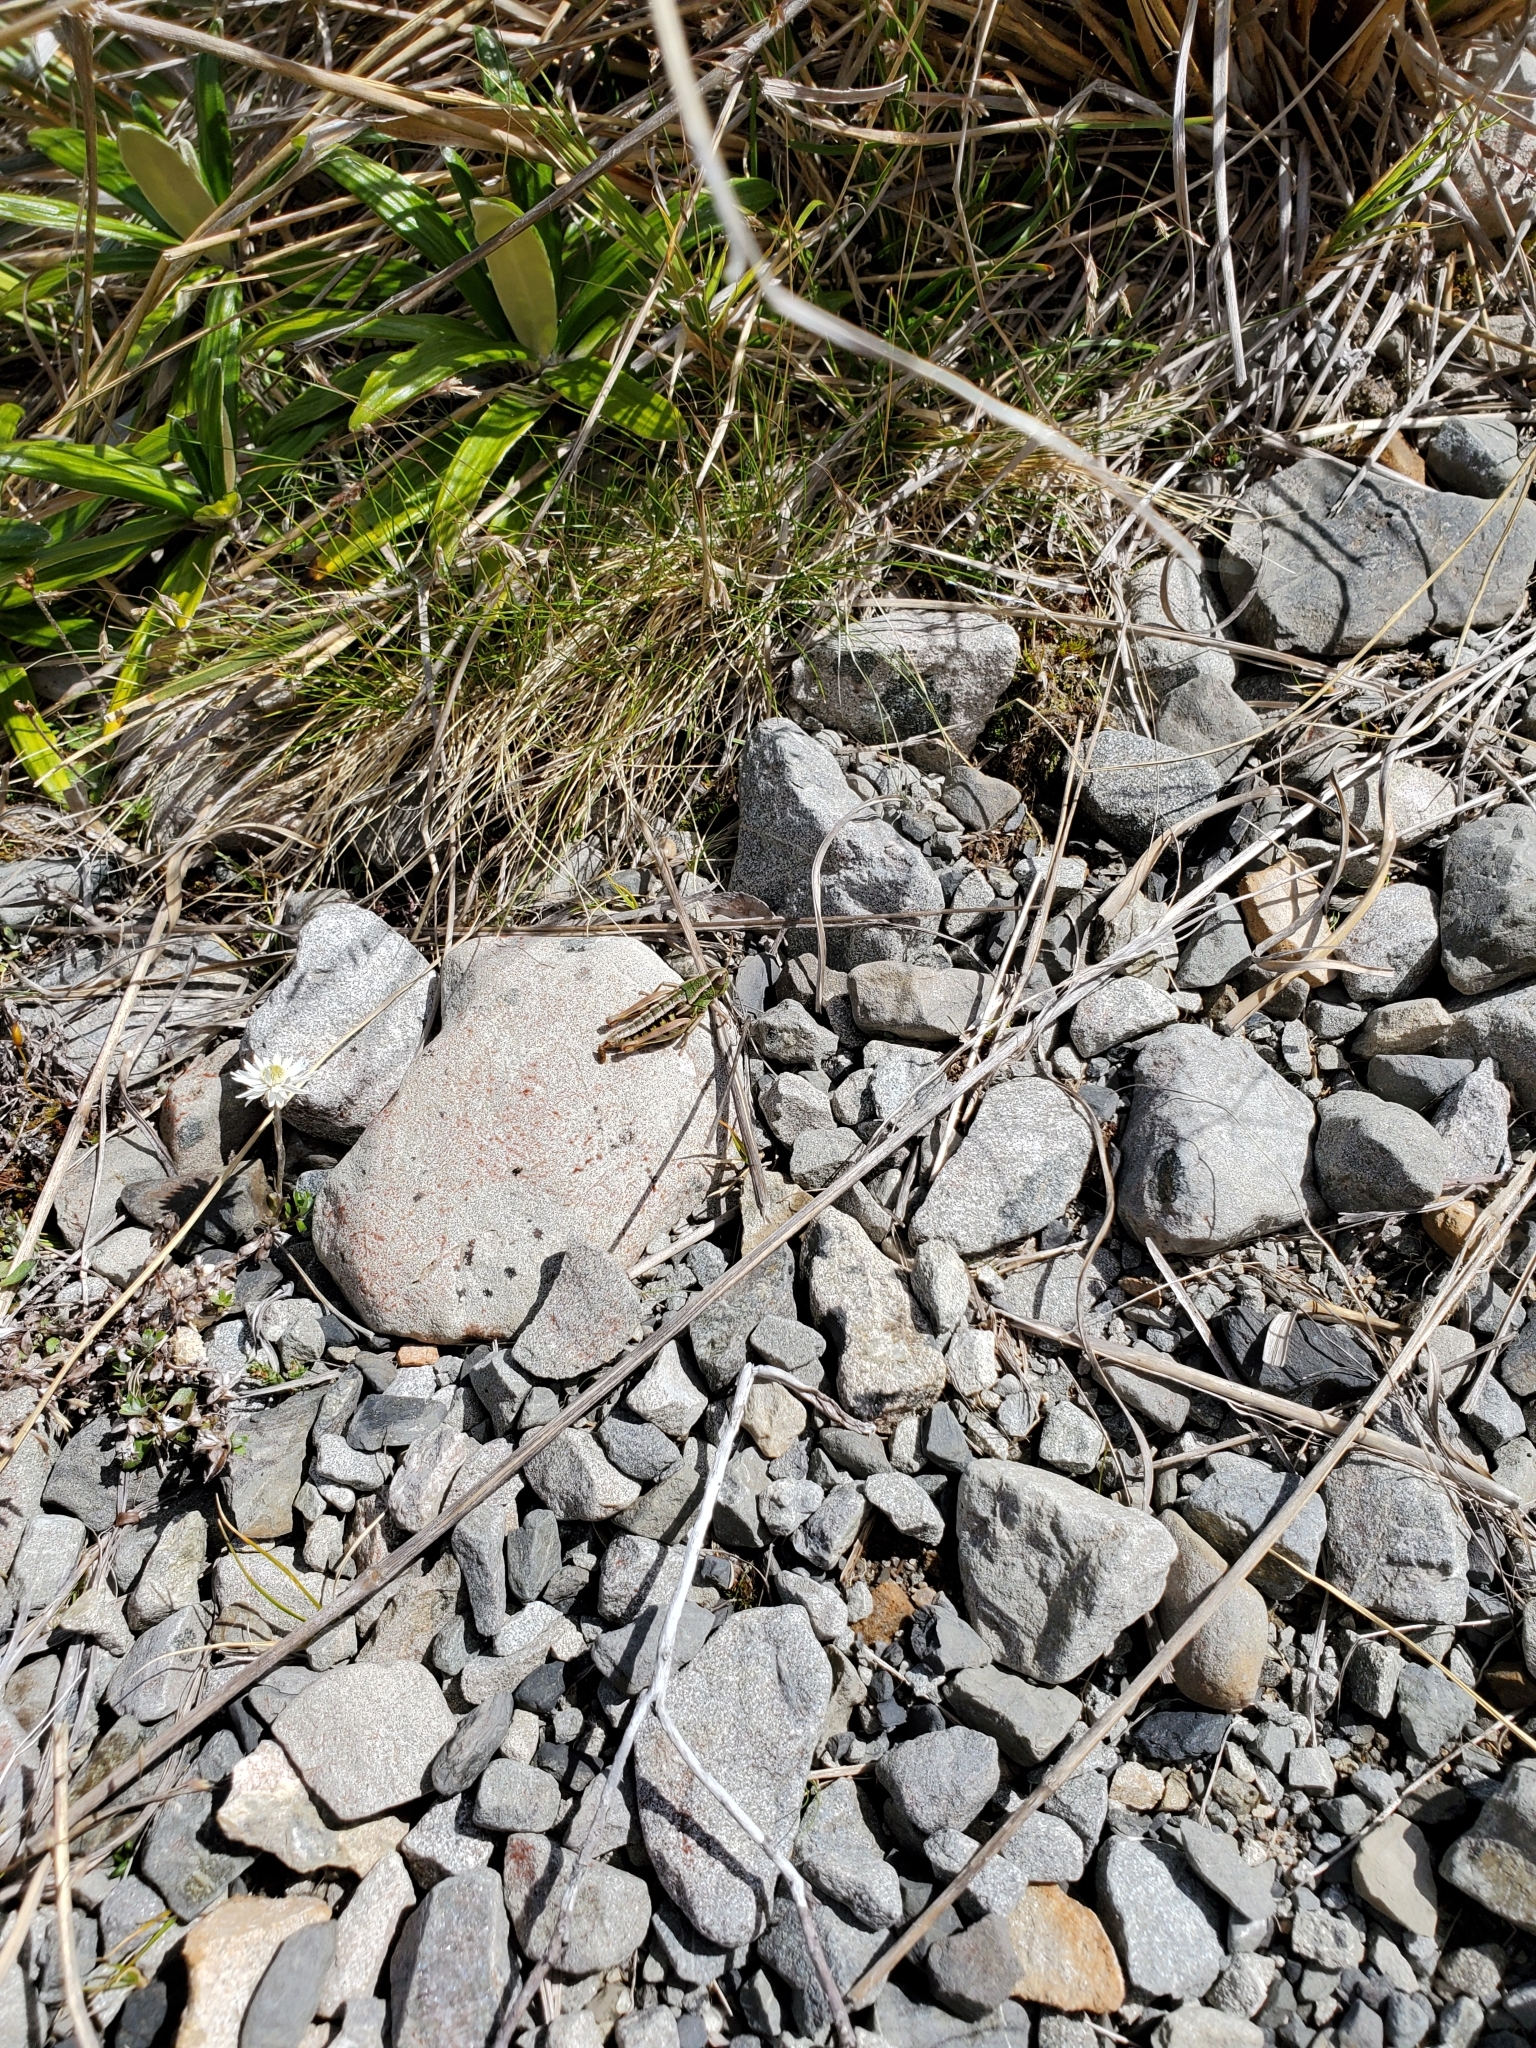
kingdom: Animalia
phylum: Arthropoda
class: Insecta
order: Orthoptera
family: Acrididae
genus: Sigaus
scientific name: Sigaus
